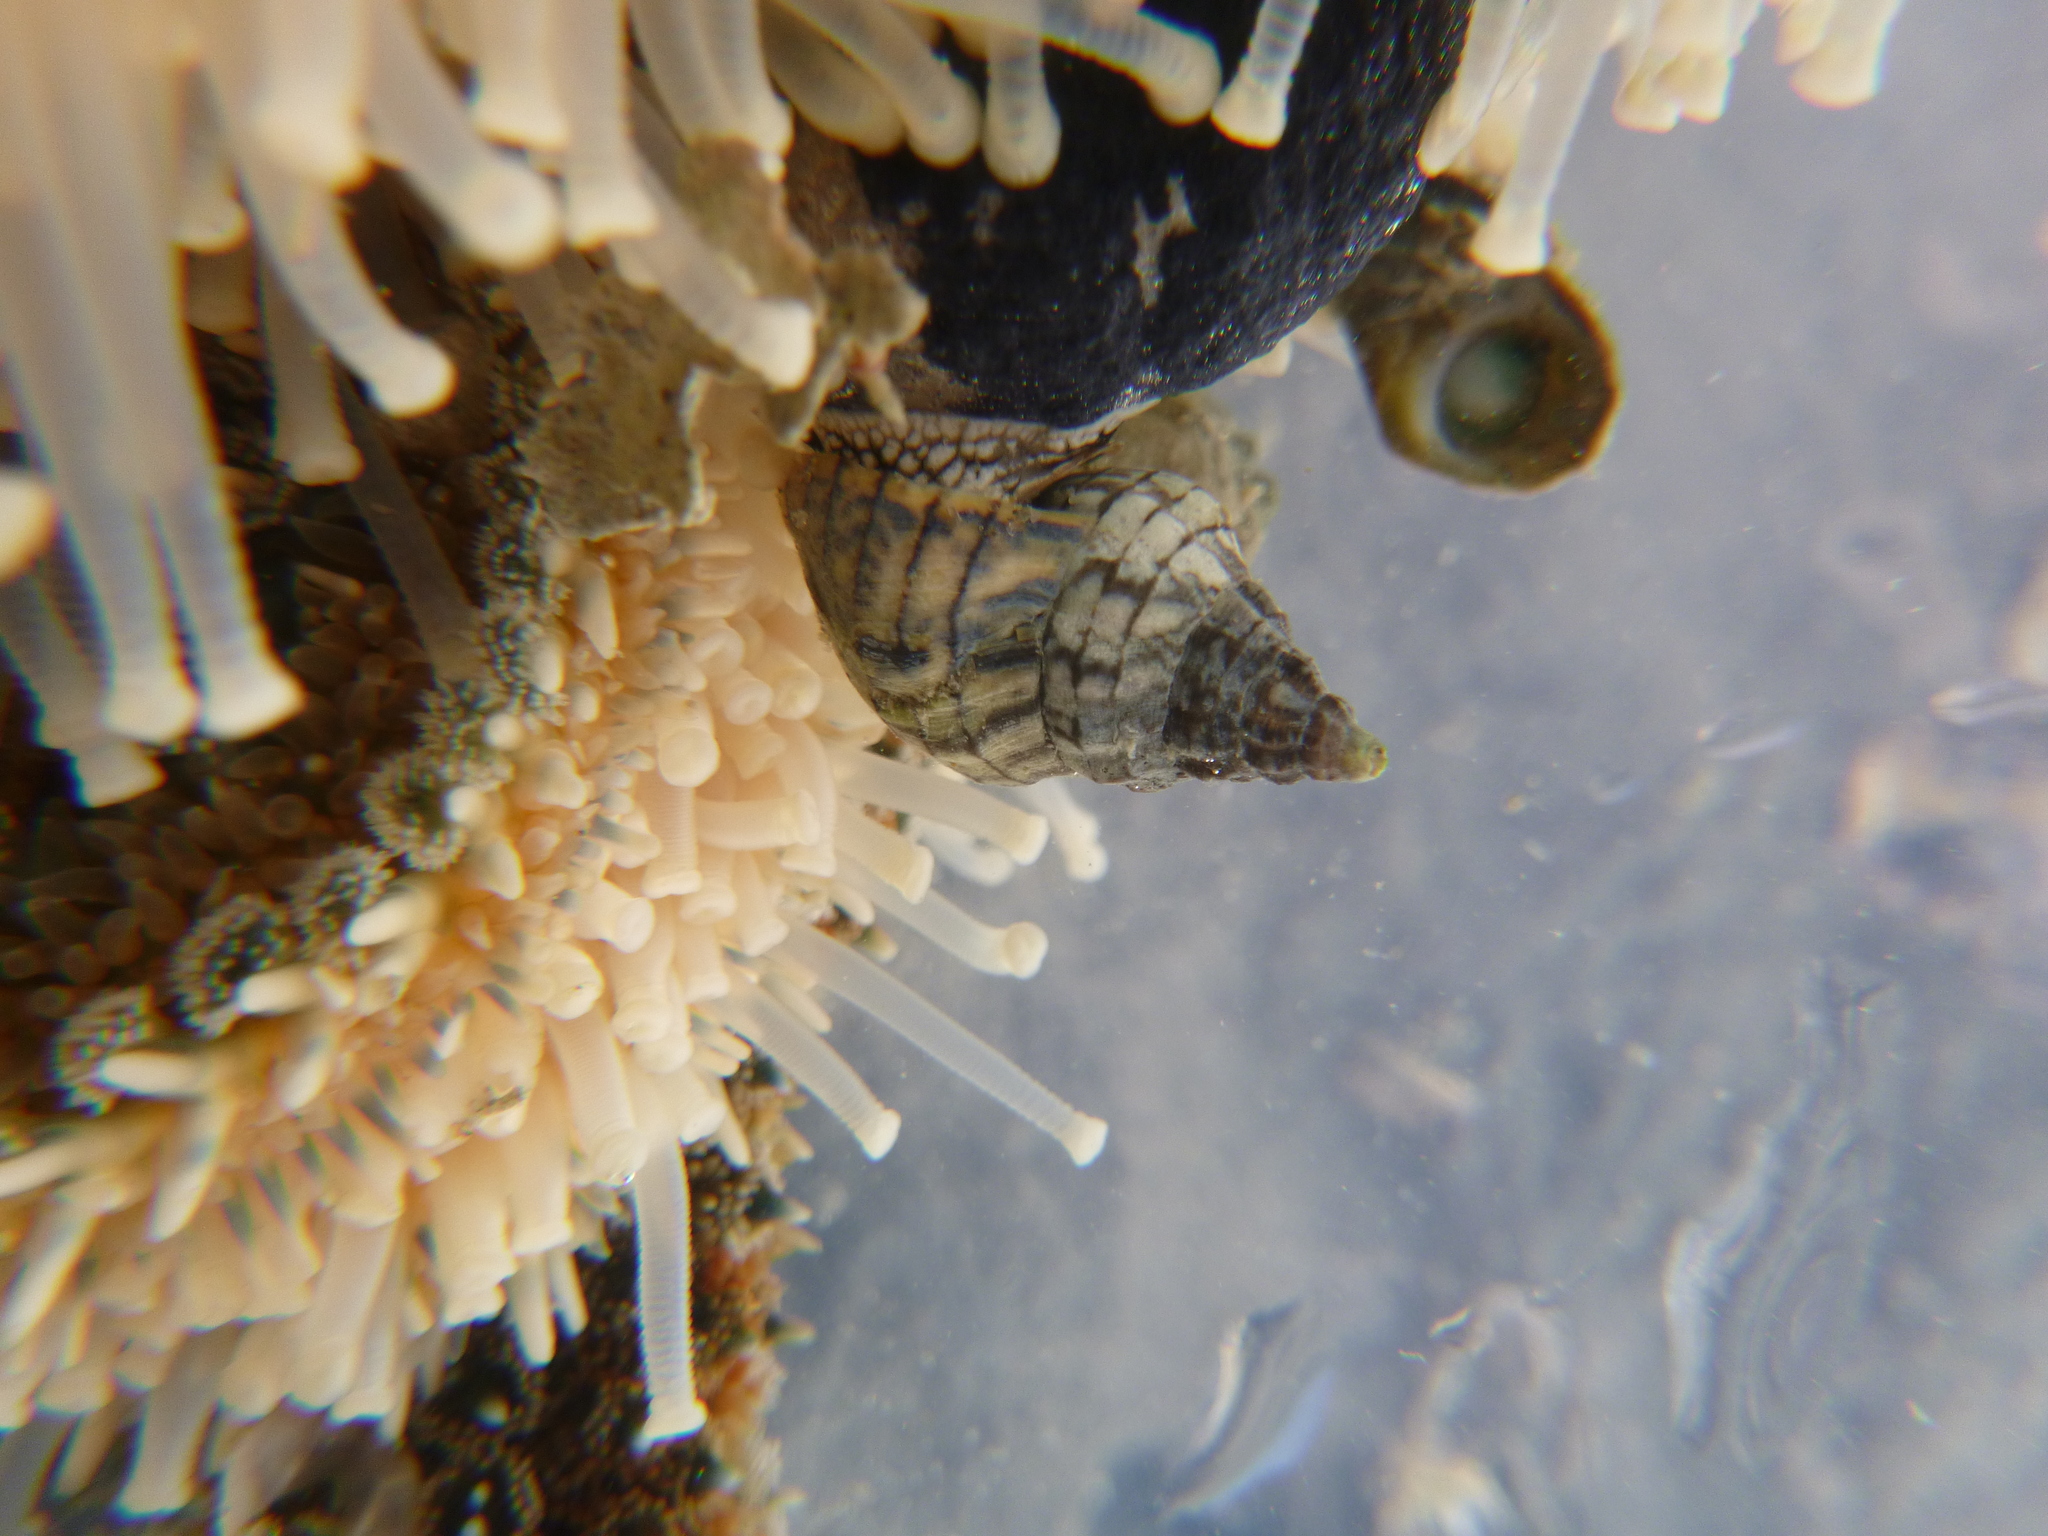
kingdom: Animalia
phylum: Mollusca
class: Gastropoda
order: Neogastropoda
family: Cominellidae
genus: Cominella
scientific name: Cominella virgata
